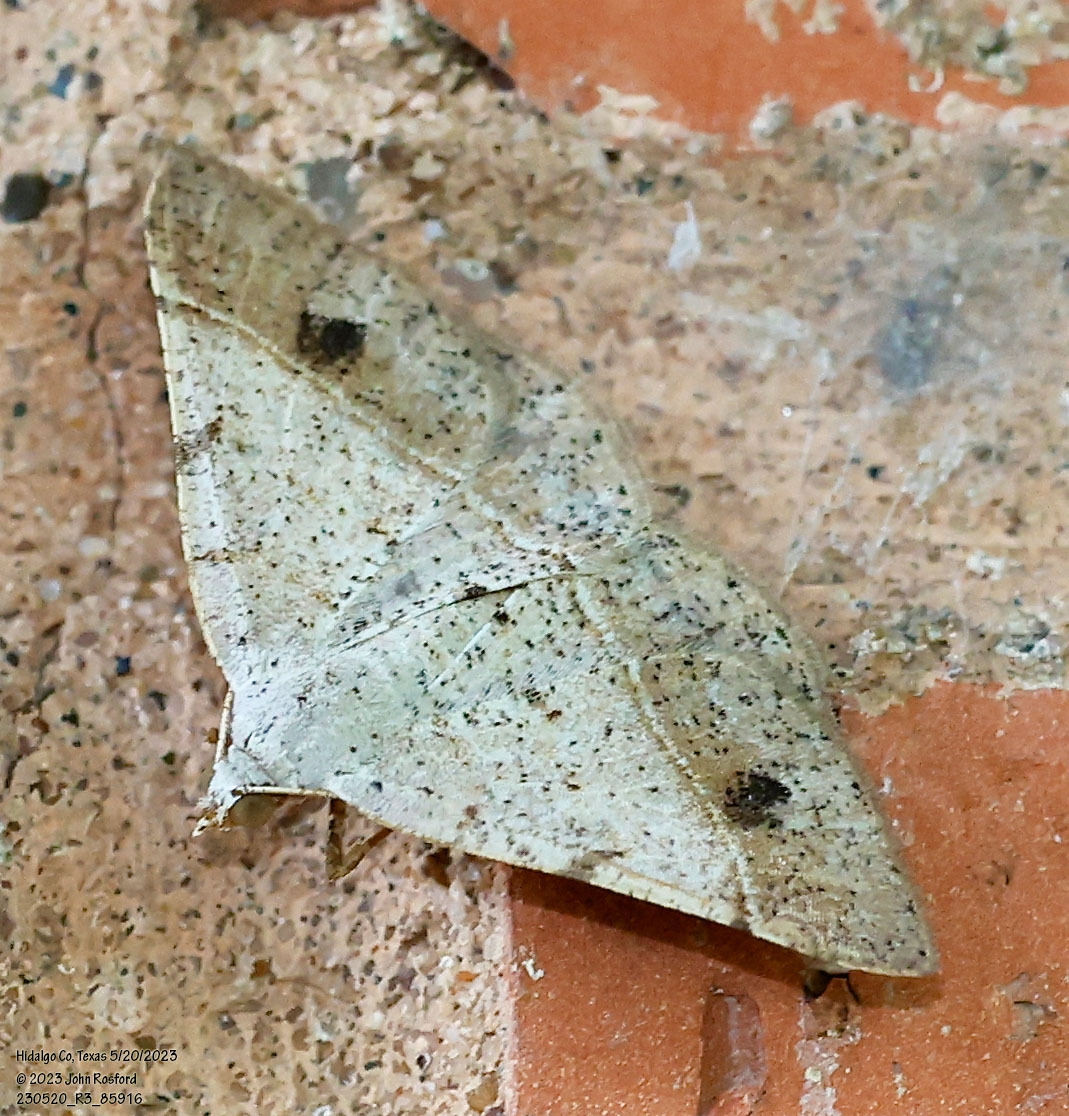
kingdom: Animalia
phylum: Arthropoda
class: Insecta
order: Lepidoptera
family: Geometridae
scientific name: Geometridae
